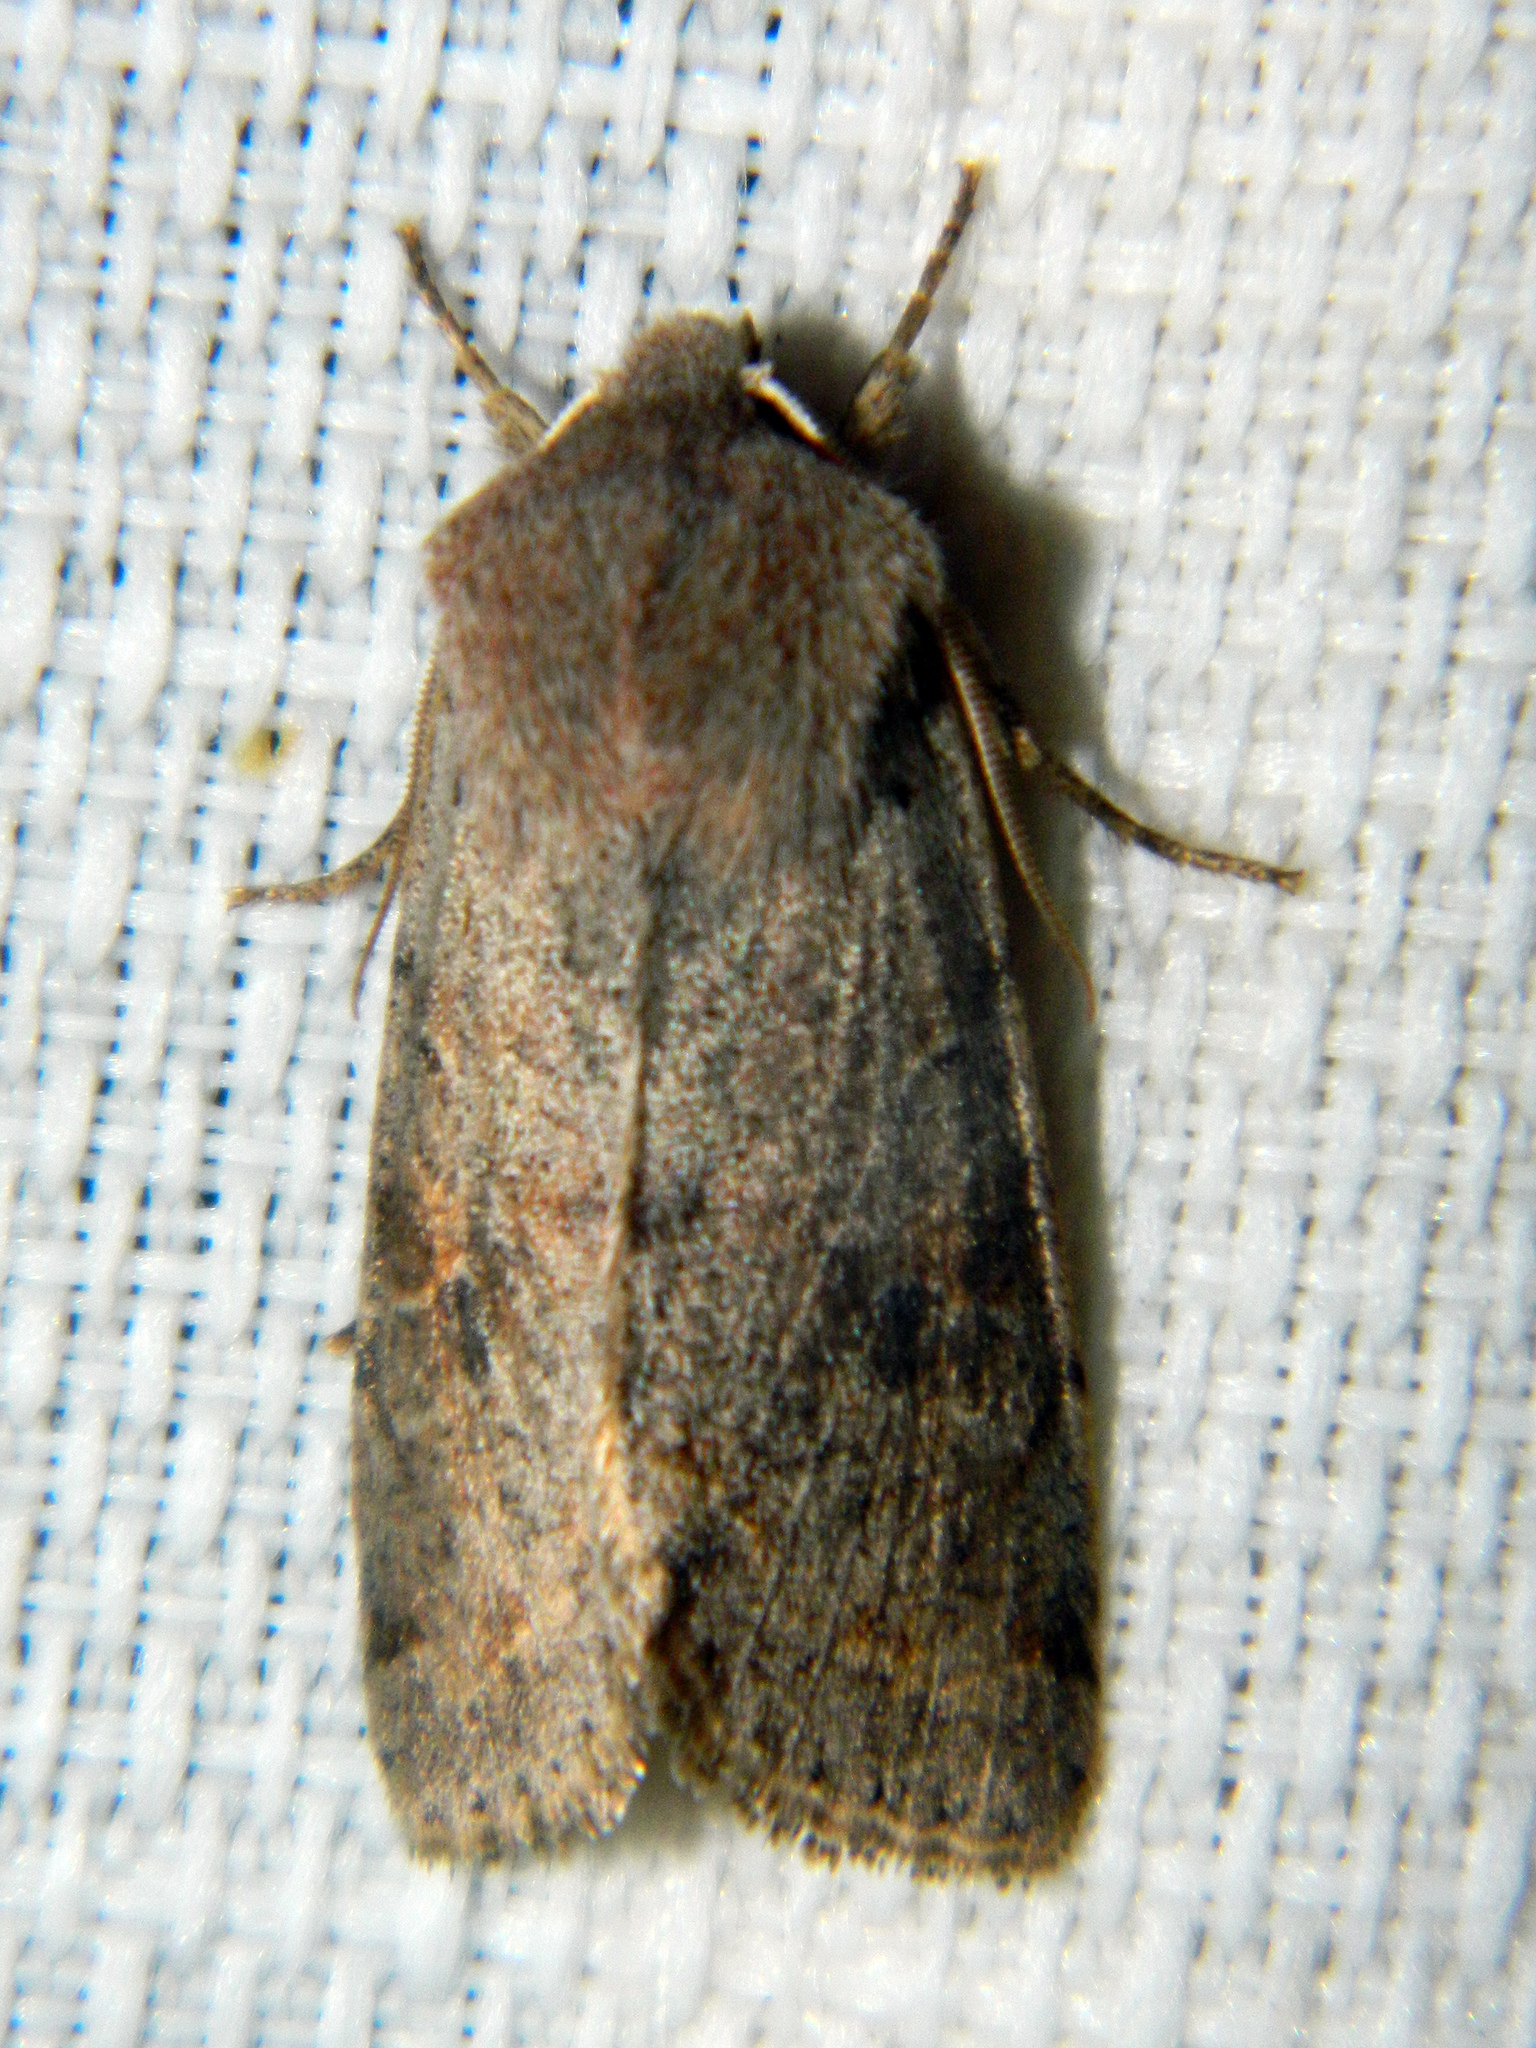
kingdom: Animalia
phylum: Arthropoda
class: Insecta
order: Lepidoptera
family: Noctuidae
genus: Orthosia
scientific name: Orthosia hibisci
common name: Green fruitworm
